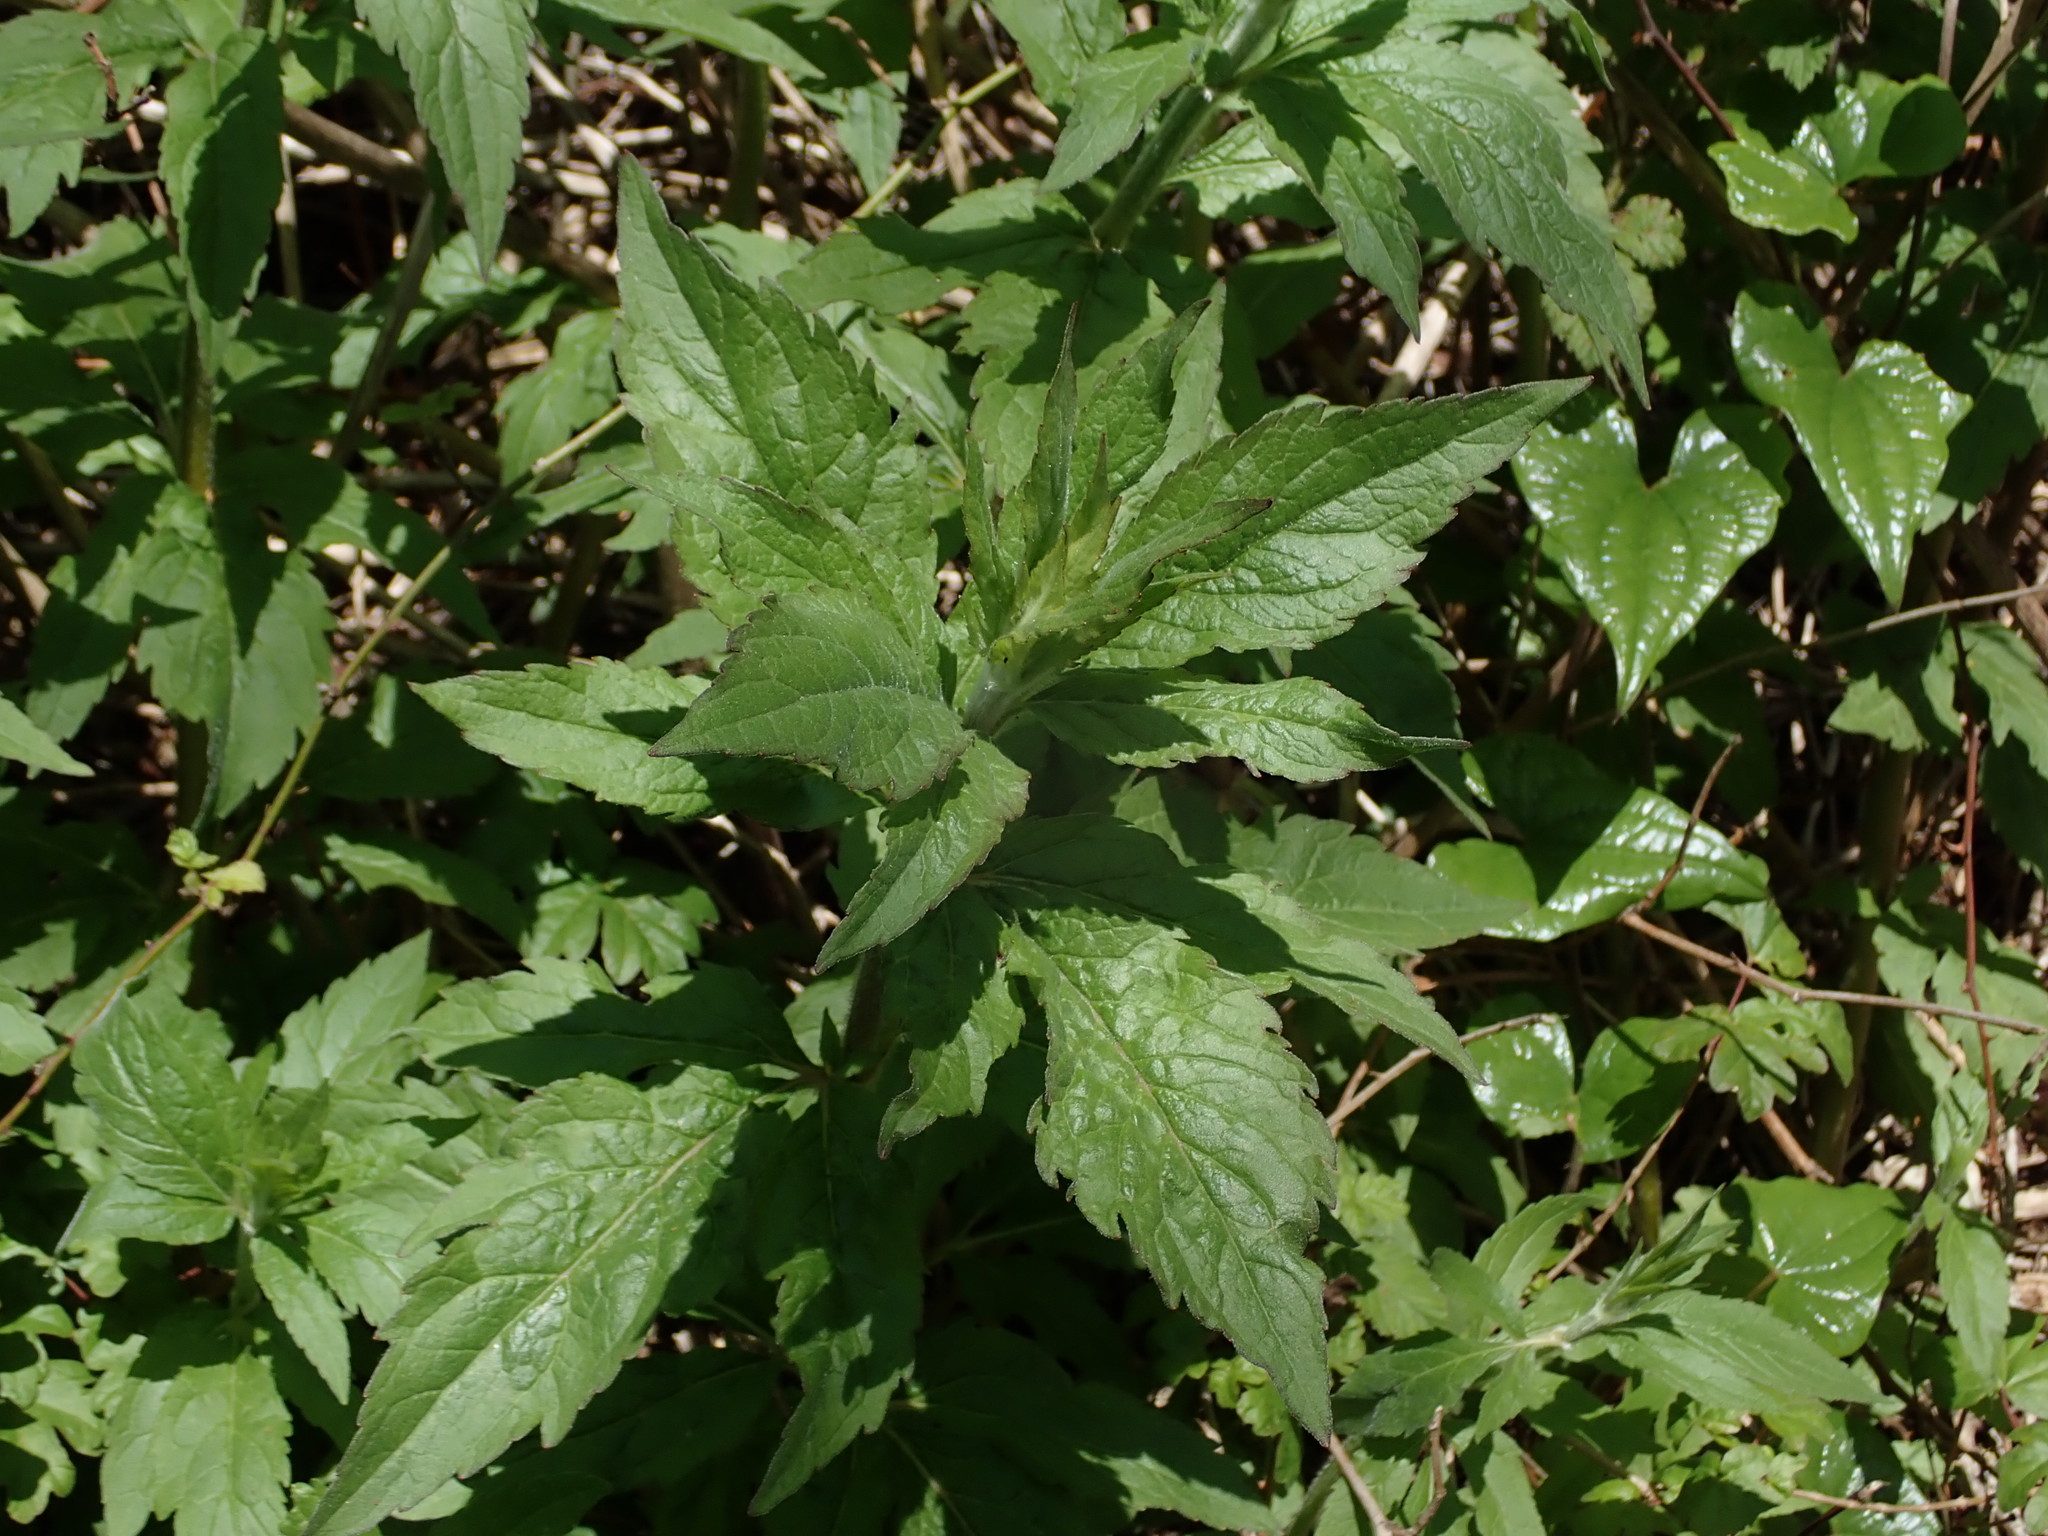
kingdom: Plantae
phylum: Tracheophyta
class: Magnoliopsida
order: Asterales
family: Asteraceae
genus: Eupatorium
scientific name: Eupatorium cannabinum
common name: Hemp-agrimony
